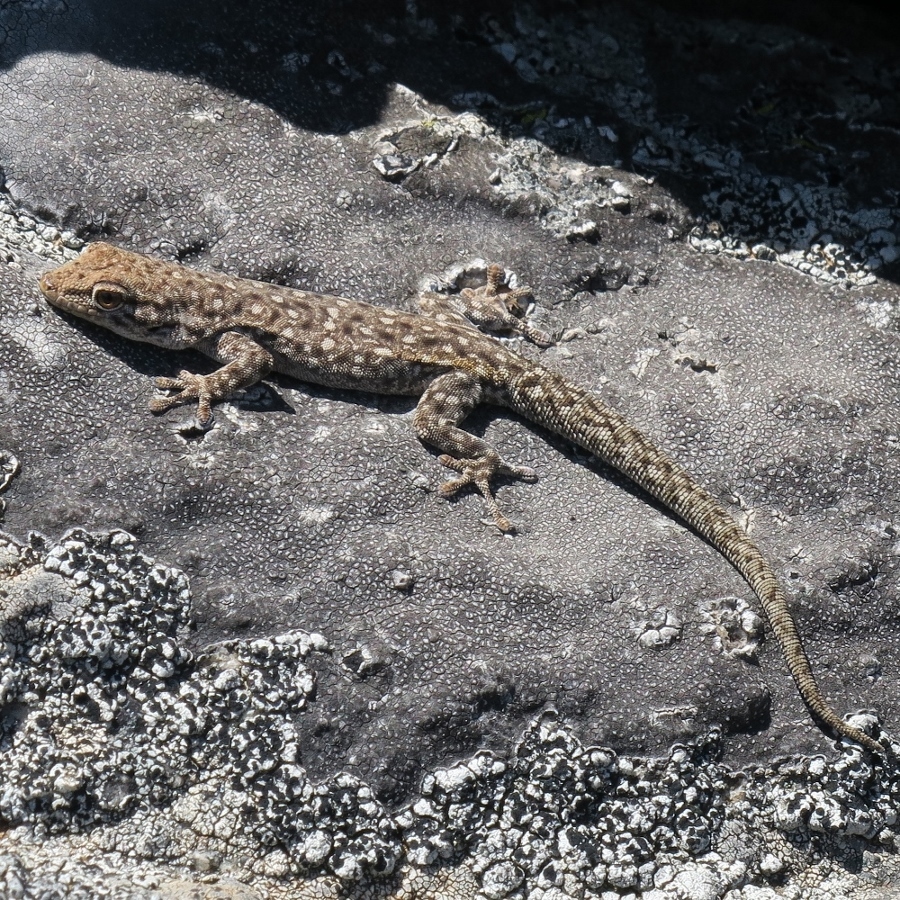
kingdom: Animalia
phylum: Chordata
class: Squamata
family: Gekkonidae
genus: Rhoptropella
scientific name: Rhoptropella ocellata
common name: Namaqua day gecko
